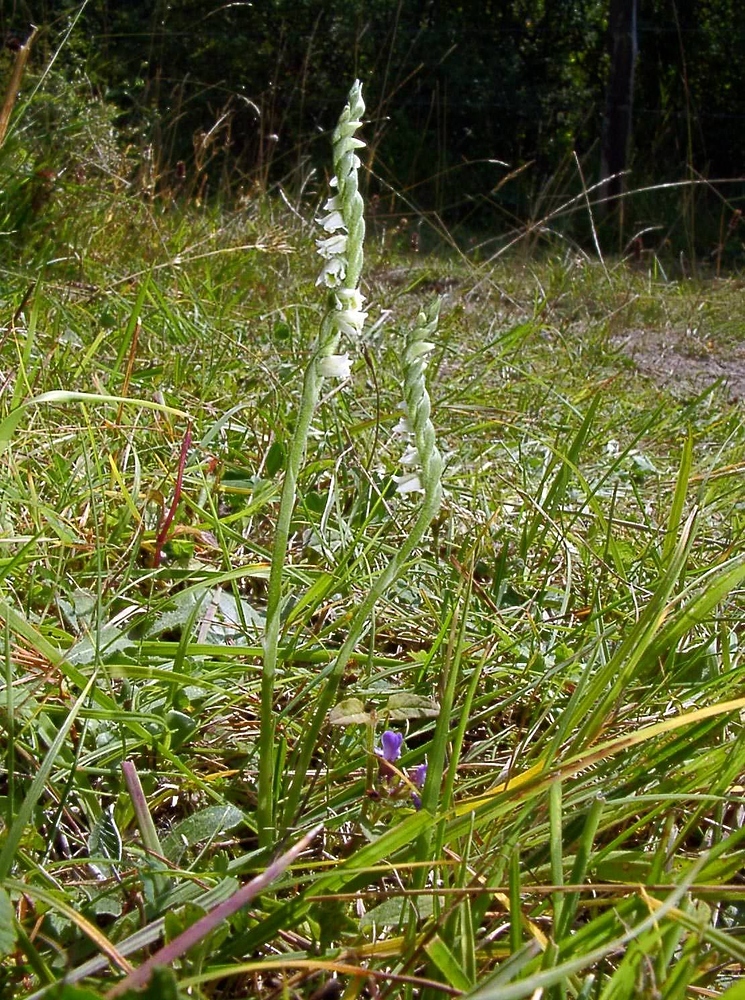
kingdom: Plantae
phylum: Tracheophyta
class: Liliopsida
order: Asparagales
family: Orchidaceae
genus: Spiranthes
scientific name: Spiranthes spiralis
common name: Autumn lady's-tresses
